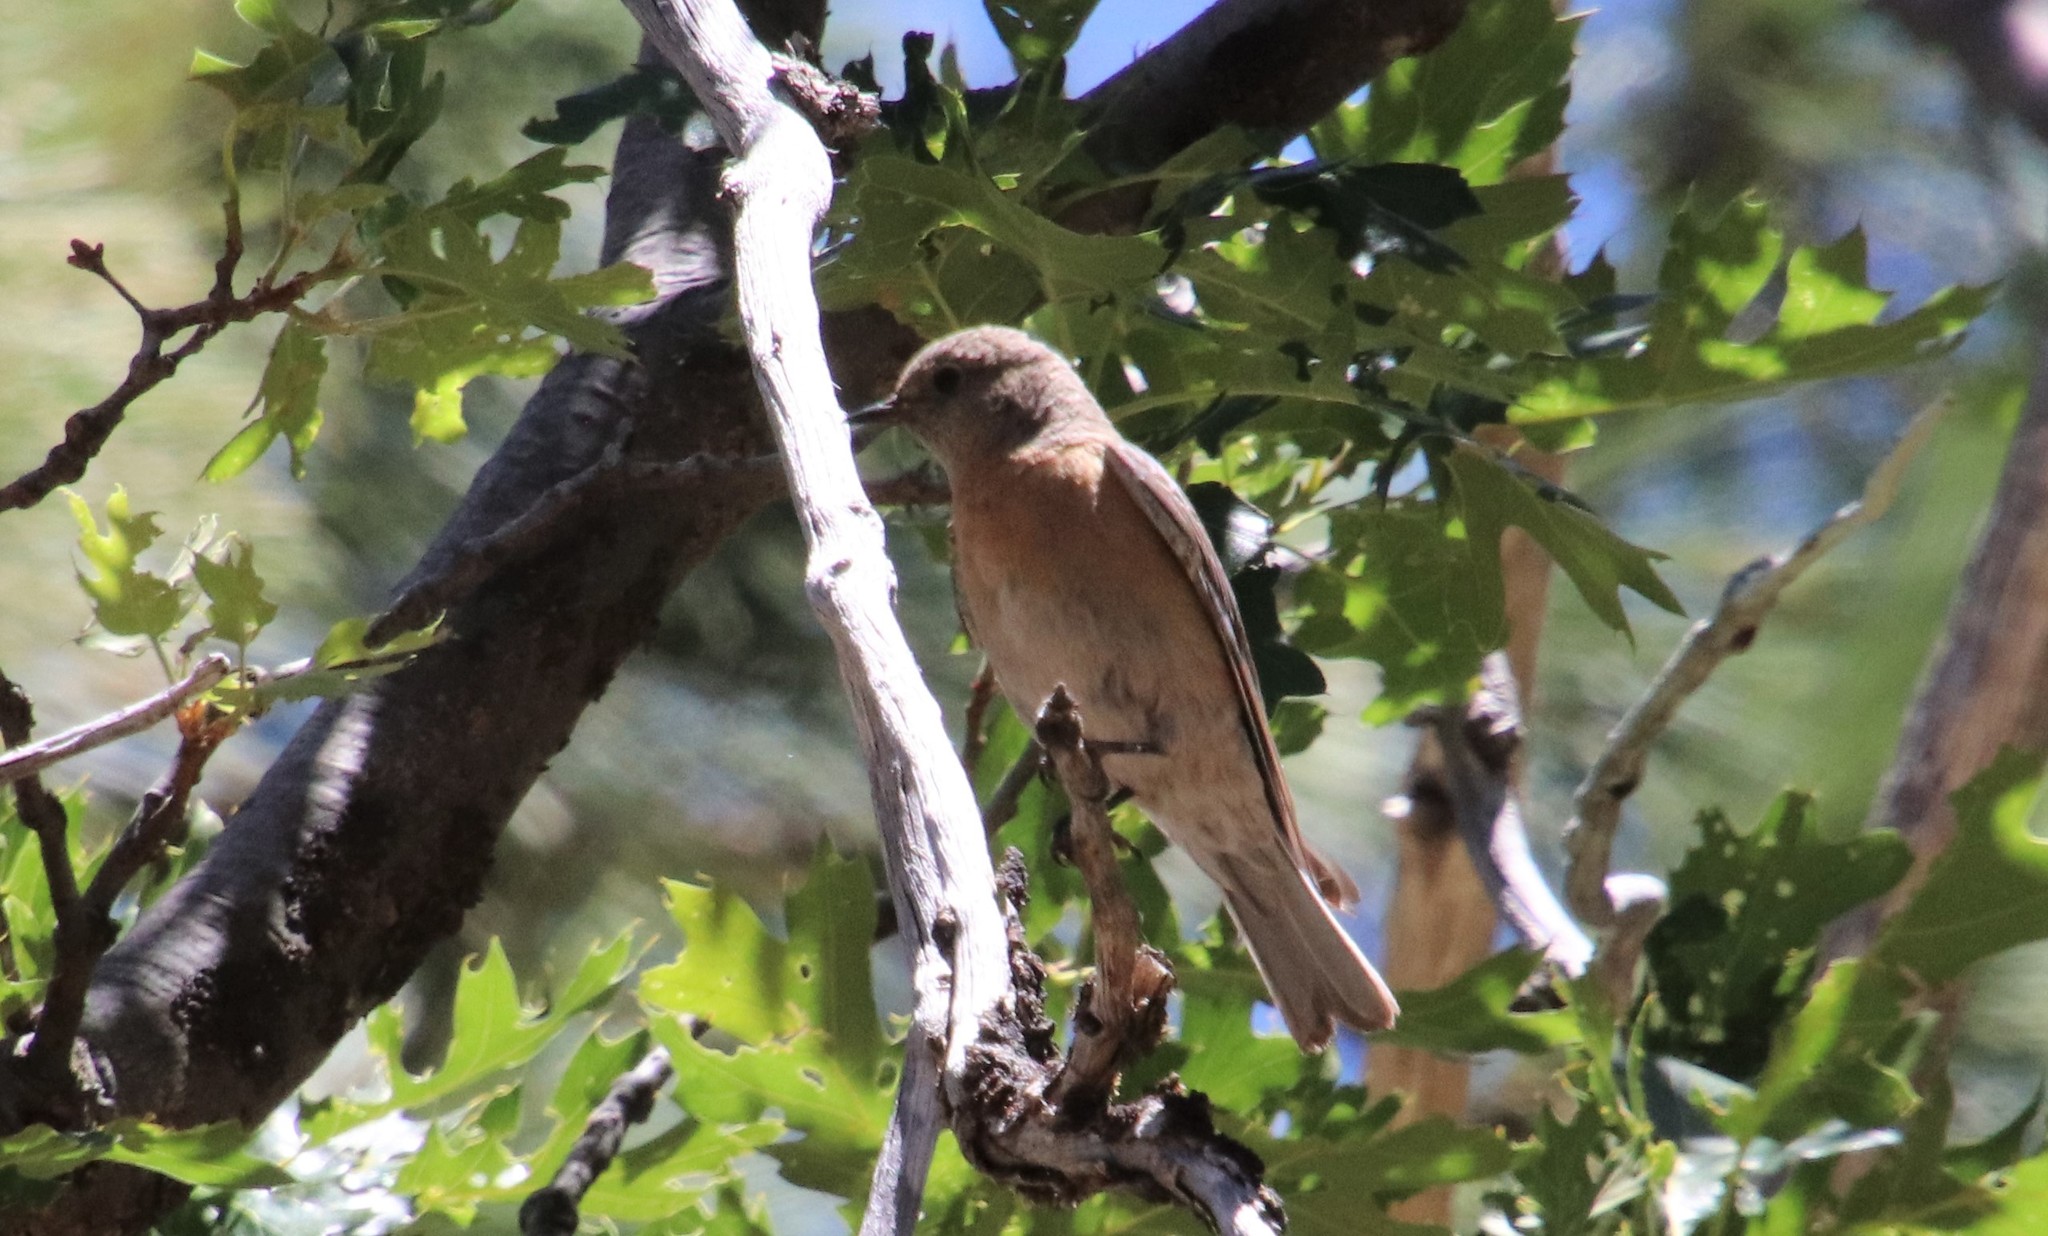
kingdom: Animalia
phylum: Chordata
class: Aves
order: Passeriformes
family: Turdidae
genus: Sialia
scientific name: Sialia mexicana
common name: Western bluebird
